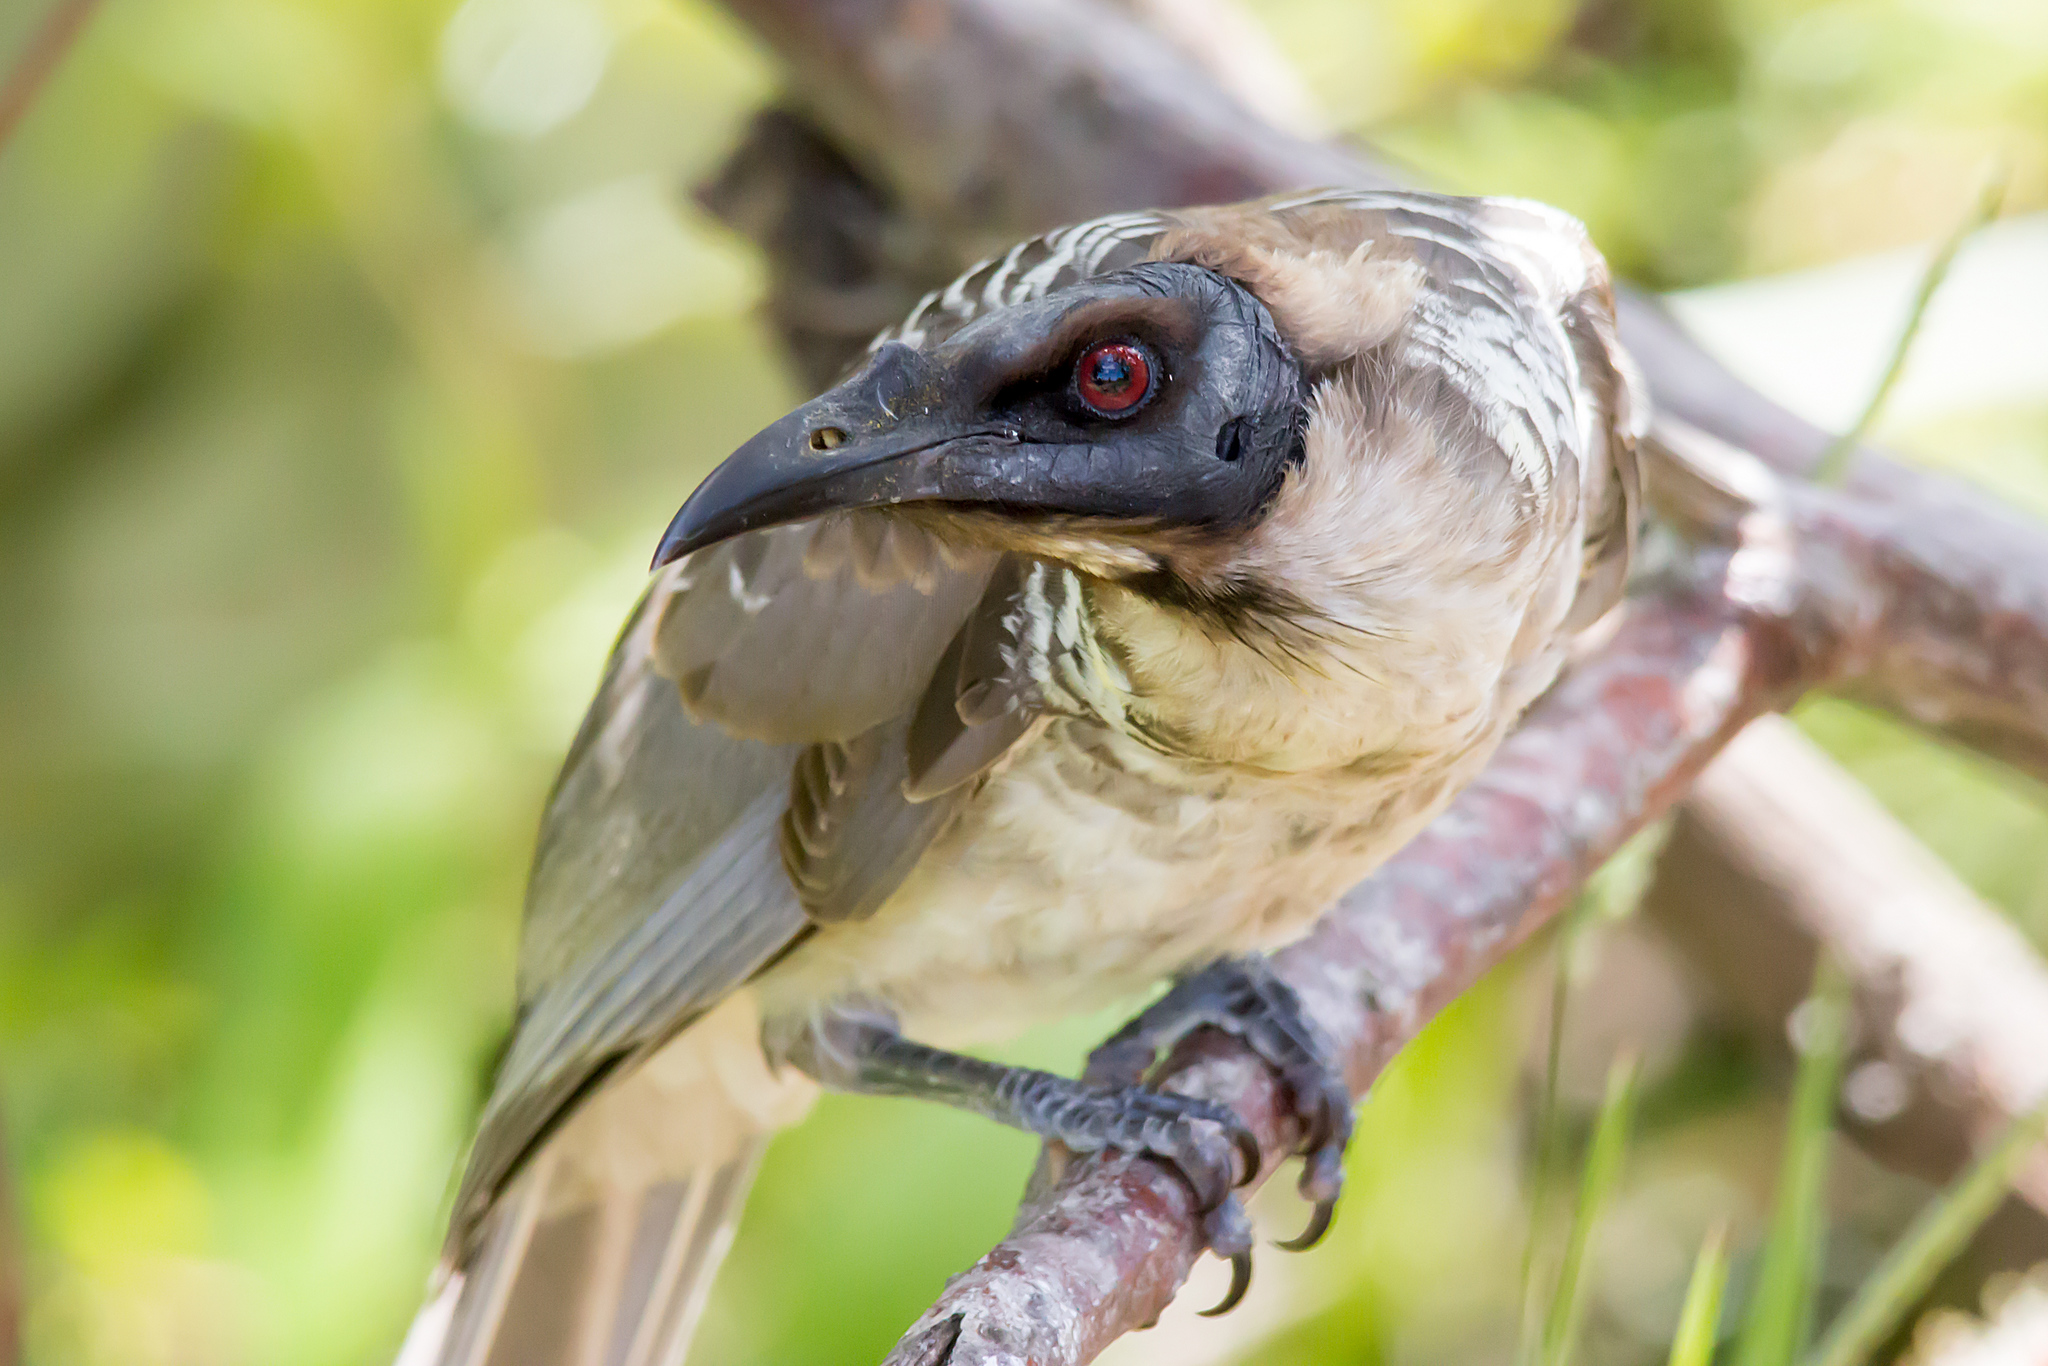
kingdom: Animalia
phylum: Chordata
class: Aves
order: Passeriformes
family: Meliphagidae
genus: Philemon
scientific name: Philemon corniculatus
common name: Noisy friarbird
